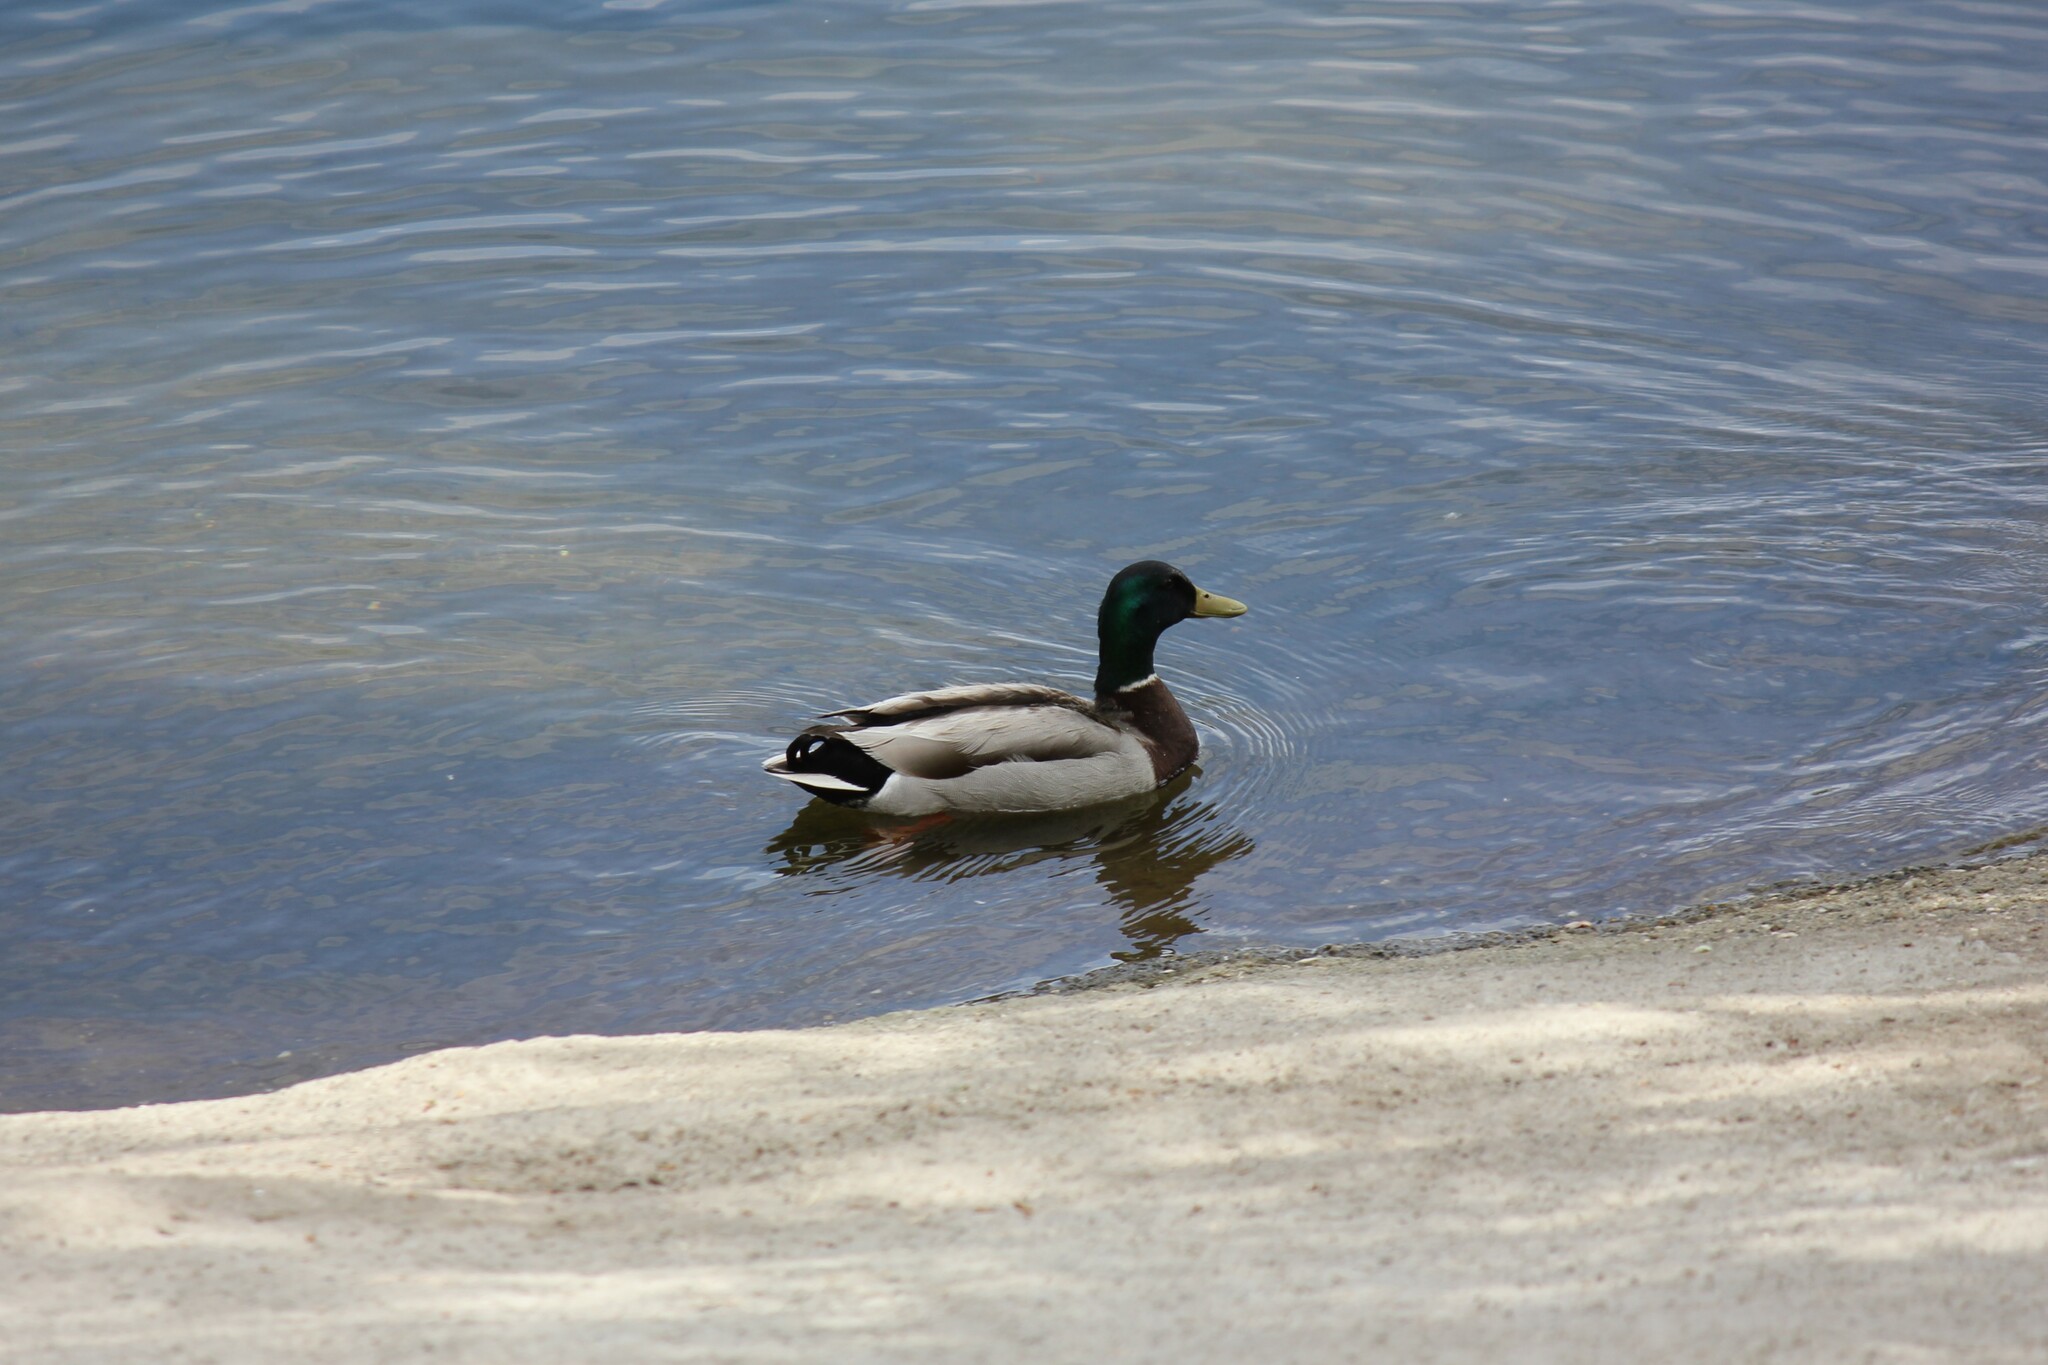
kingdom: Animalia
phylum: Chordata
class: Aves
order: Anseriformes
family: Anatidae
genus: Anas
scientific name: Anas platyrhynchos
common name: Mallard
